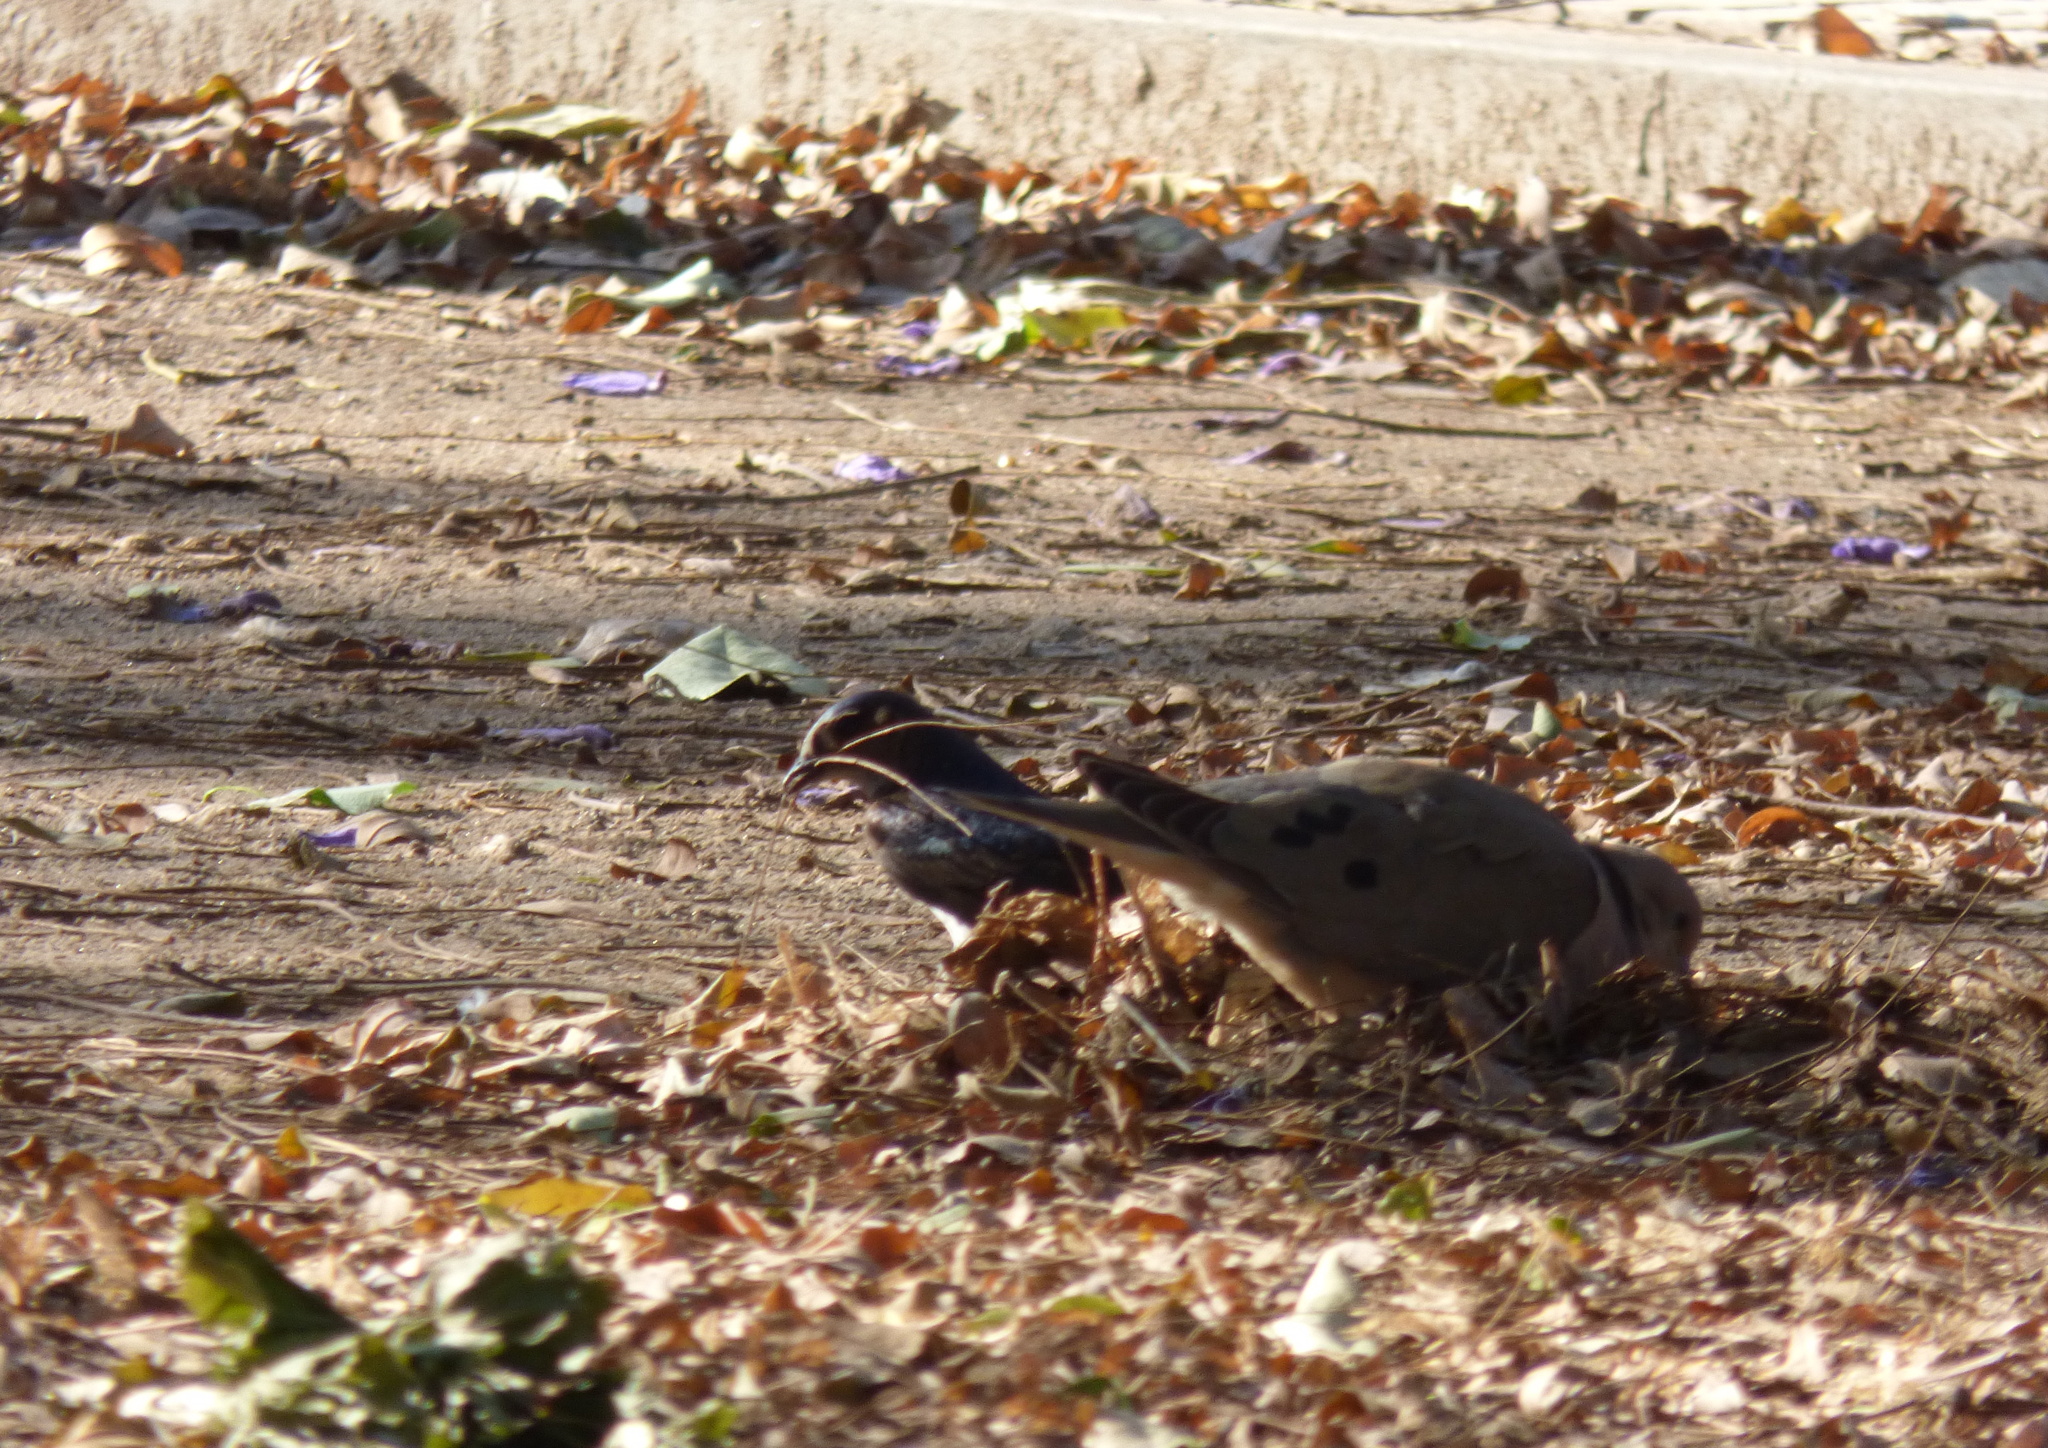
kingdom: Animalia
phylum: Chordata
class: Aves
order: Passeriformes
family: Hirundinidae
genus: Progne
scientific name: Progne chalybea
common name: Grey-breasted martin
